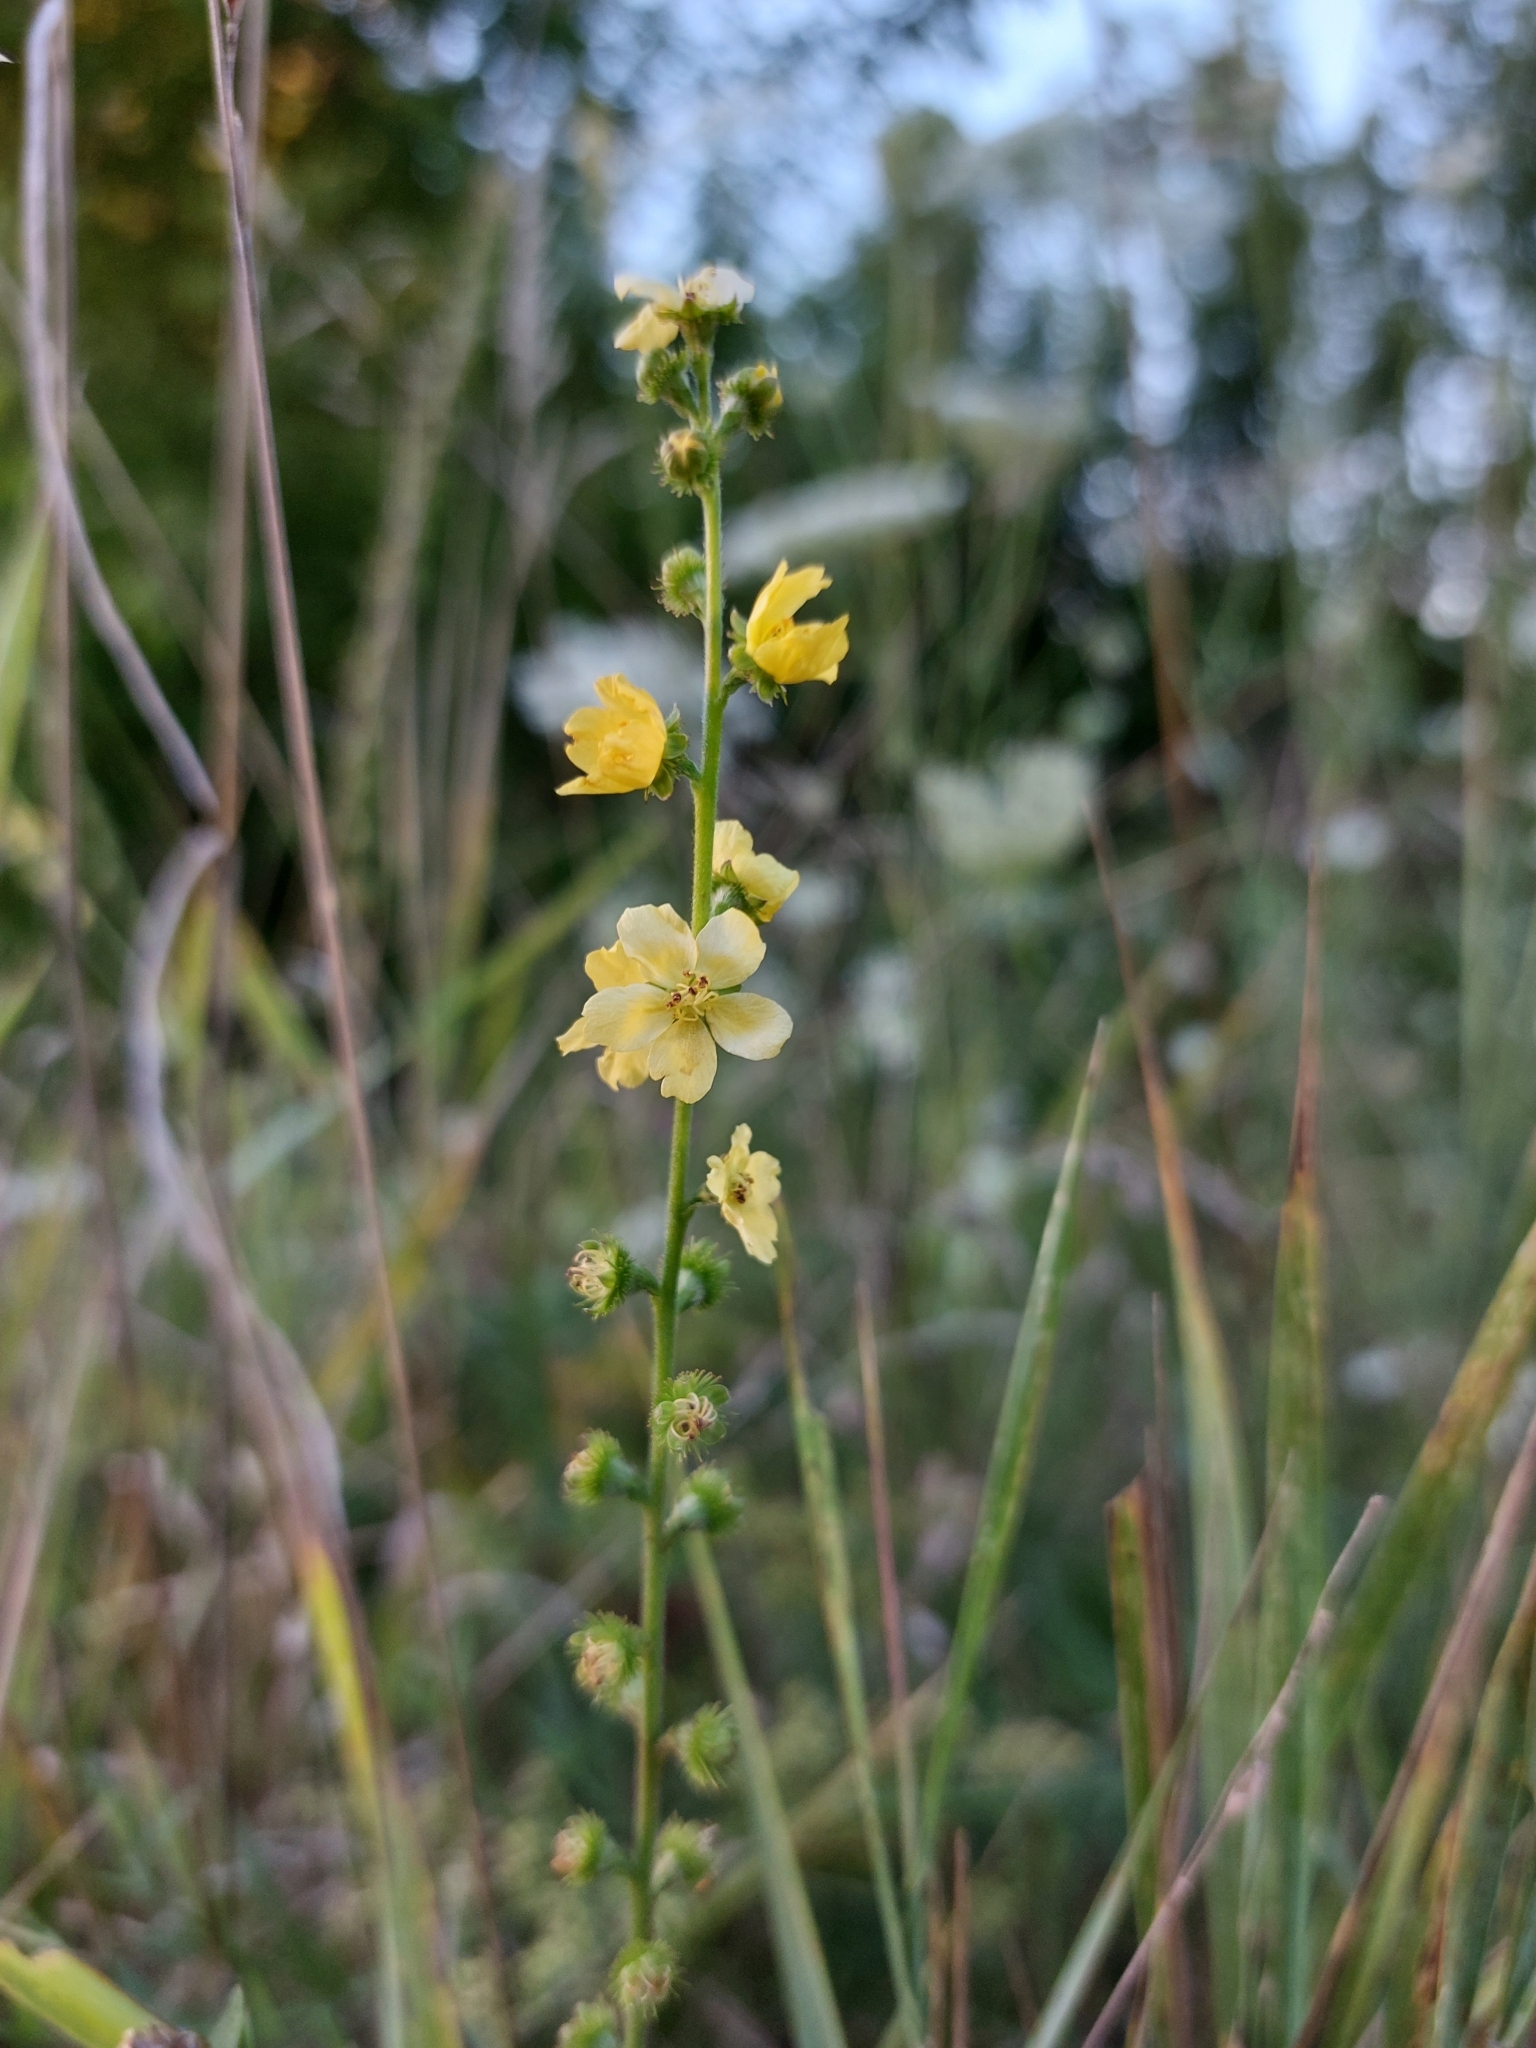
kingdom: Plantae
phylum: Tracheophyta
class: Magnoliopsida
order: Rosales
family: Rosaceae
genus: Agrimonia
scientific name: Agrimonia eupatoria
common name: Agrimony
